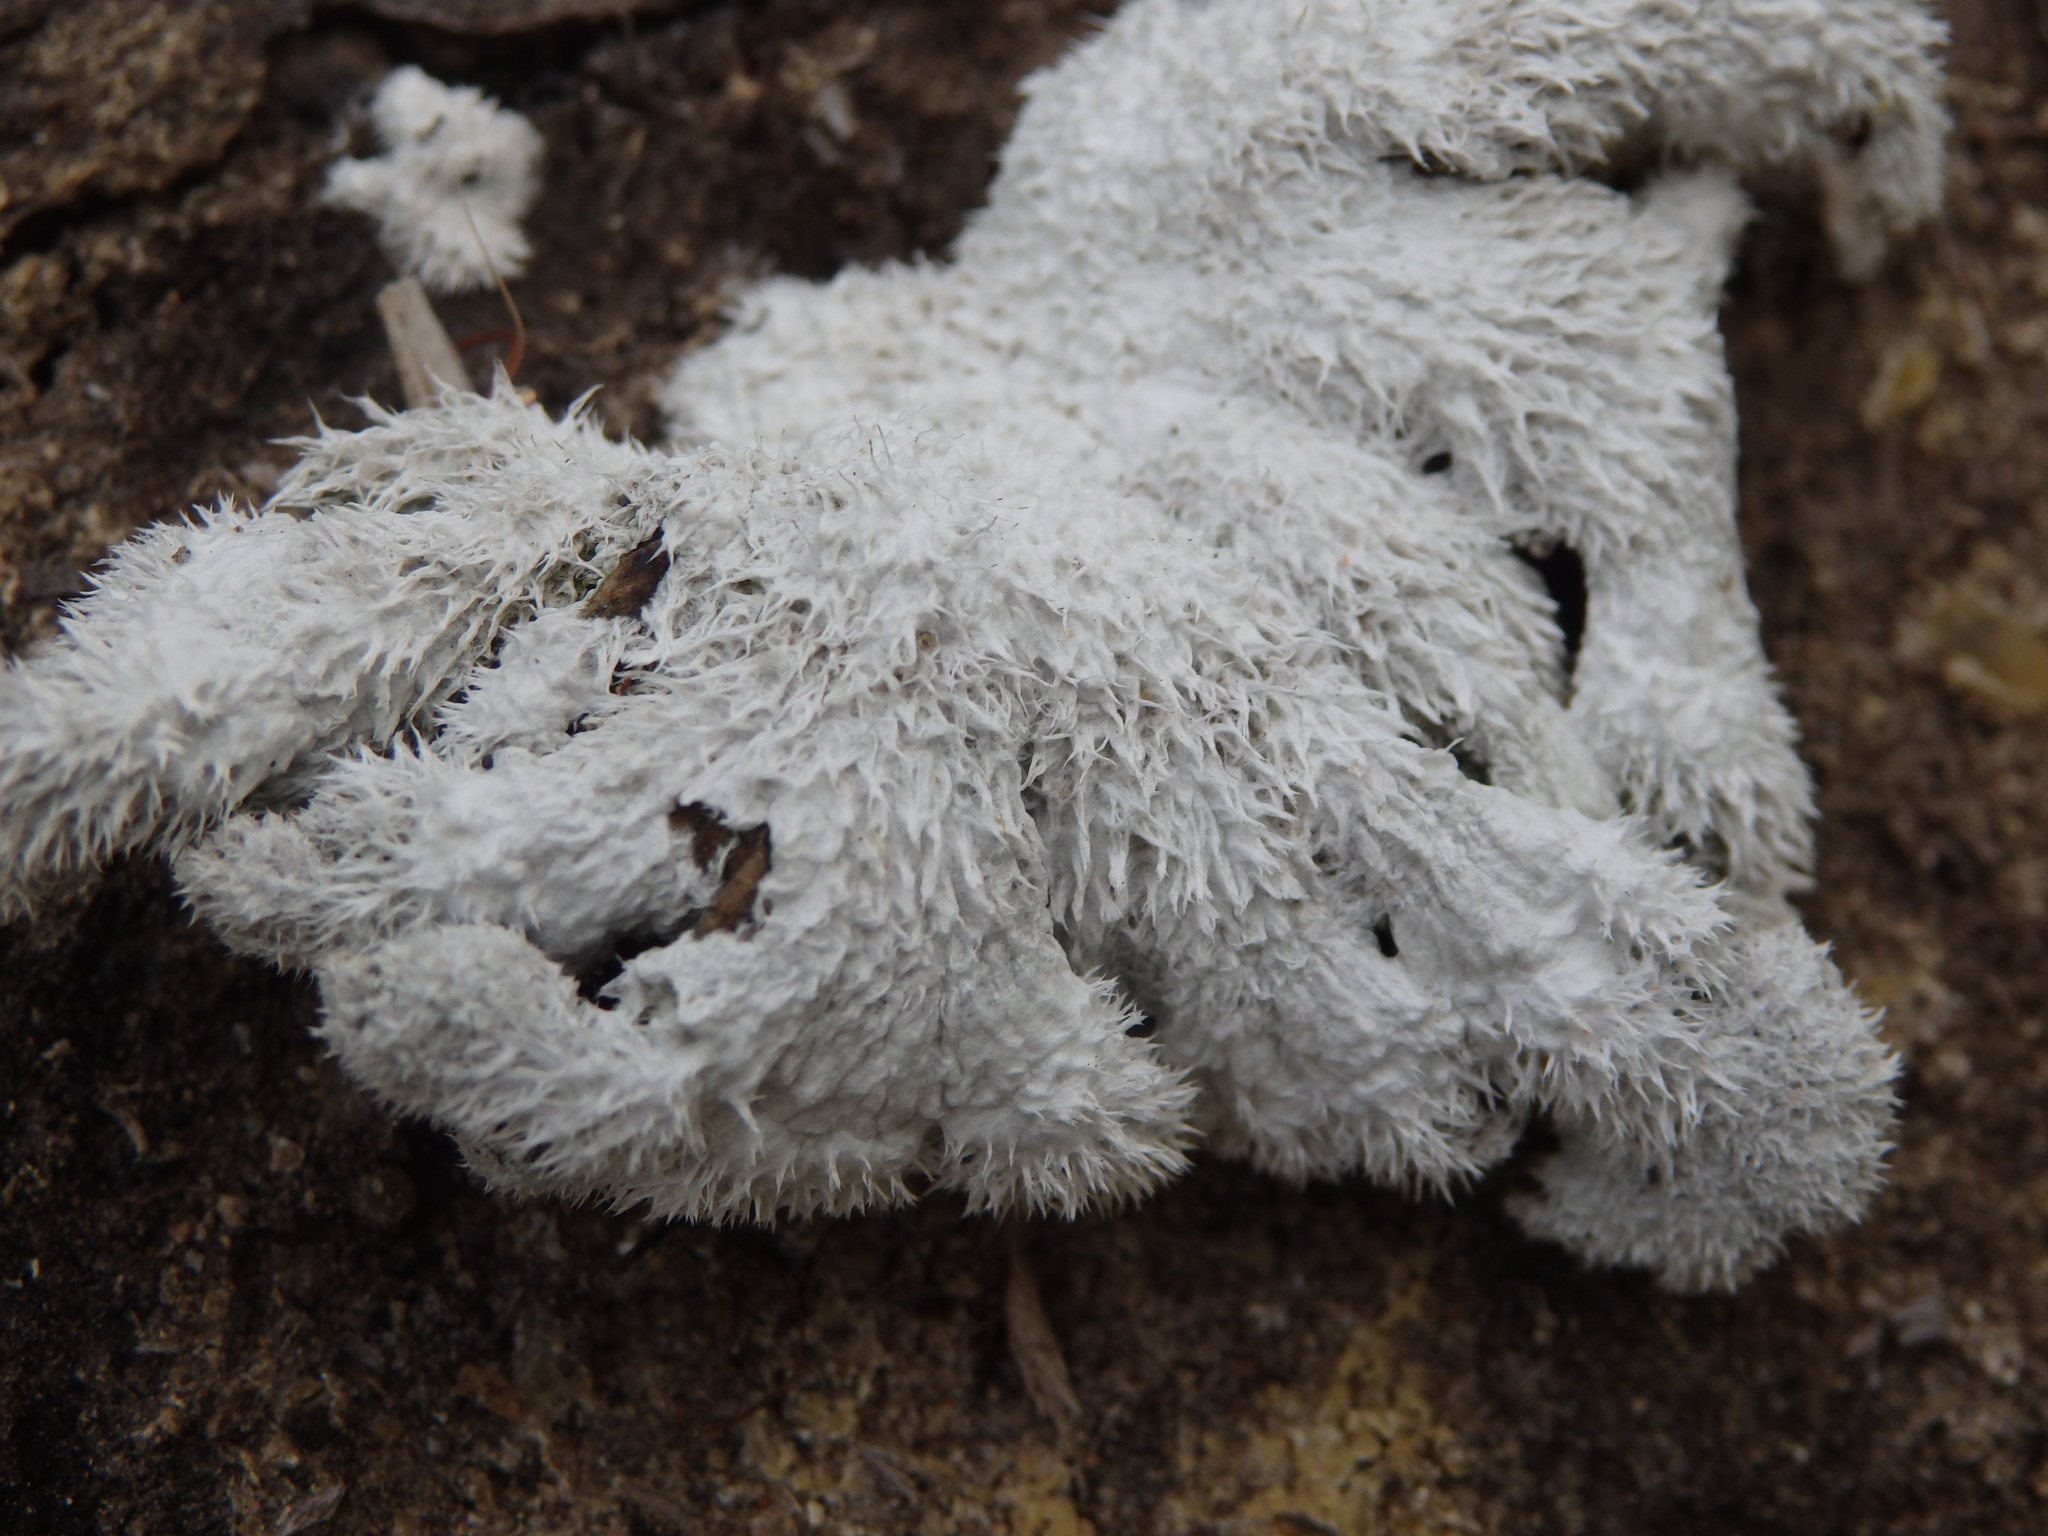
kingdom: Fungi
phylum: Basidiomycota
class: Agaricomycetes
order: Agaricales
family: Schizophyllaceae
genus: Schizophyllum
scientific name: Schizophyllum commune
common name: Common porecrust
